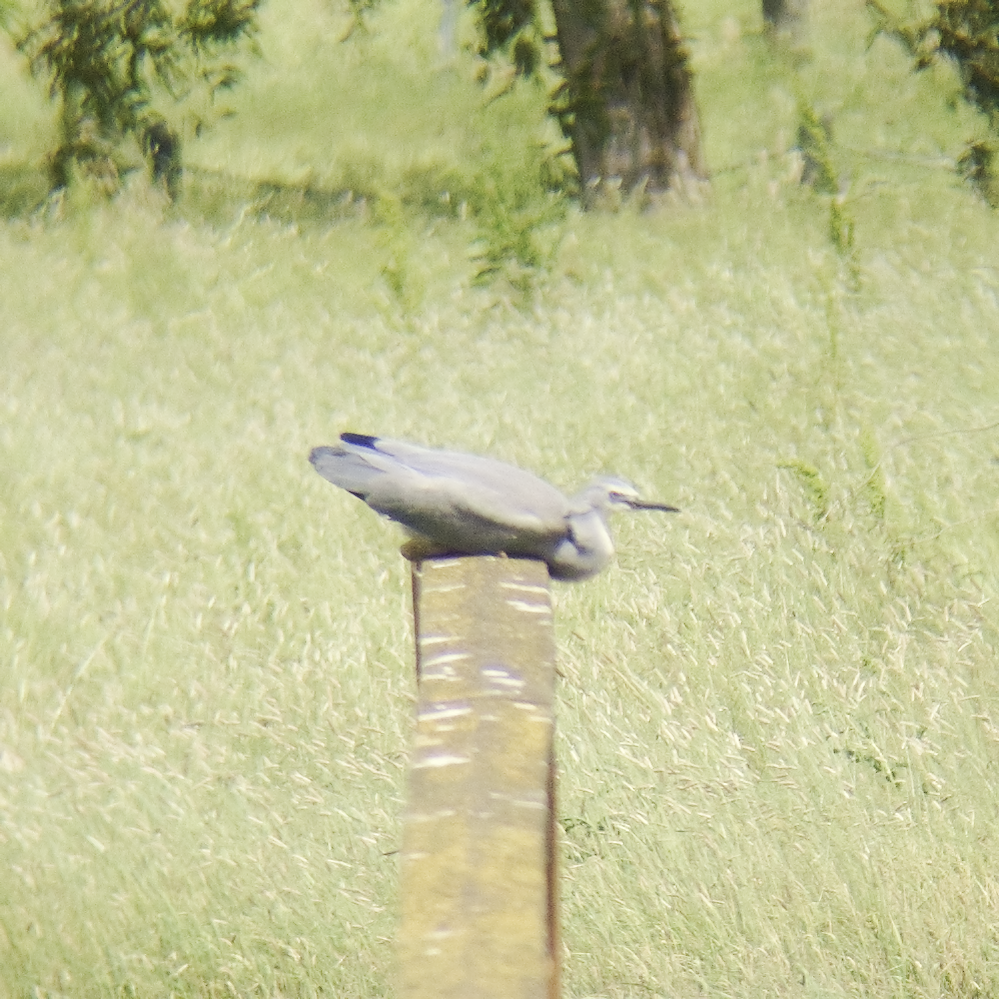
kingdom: Animalia
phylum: Chordata
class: Aves
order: Pelecaniformes
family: Ardeidae
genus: Egretta
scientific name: Egretta novaehollandiae
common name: White-faced heron
